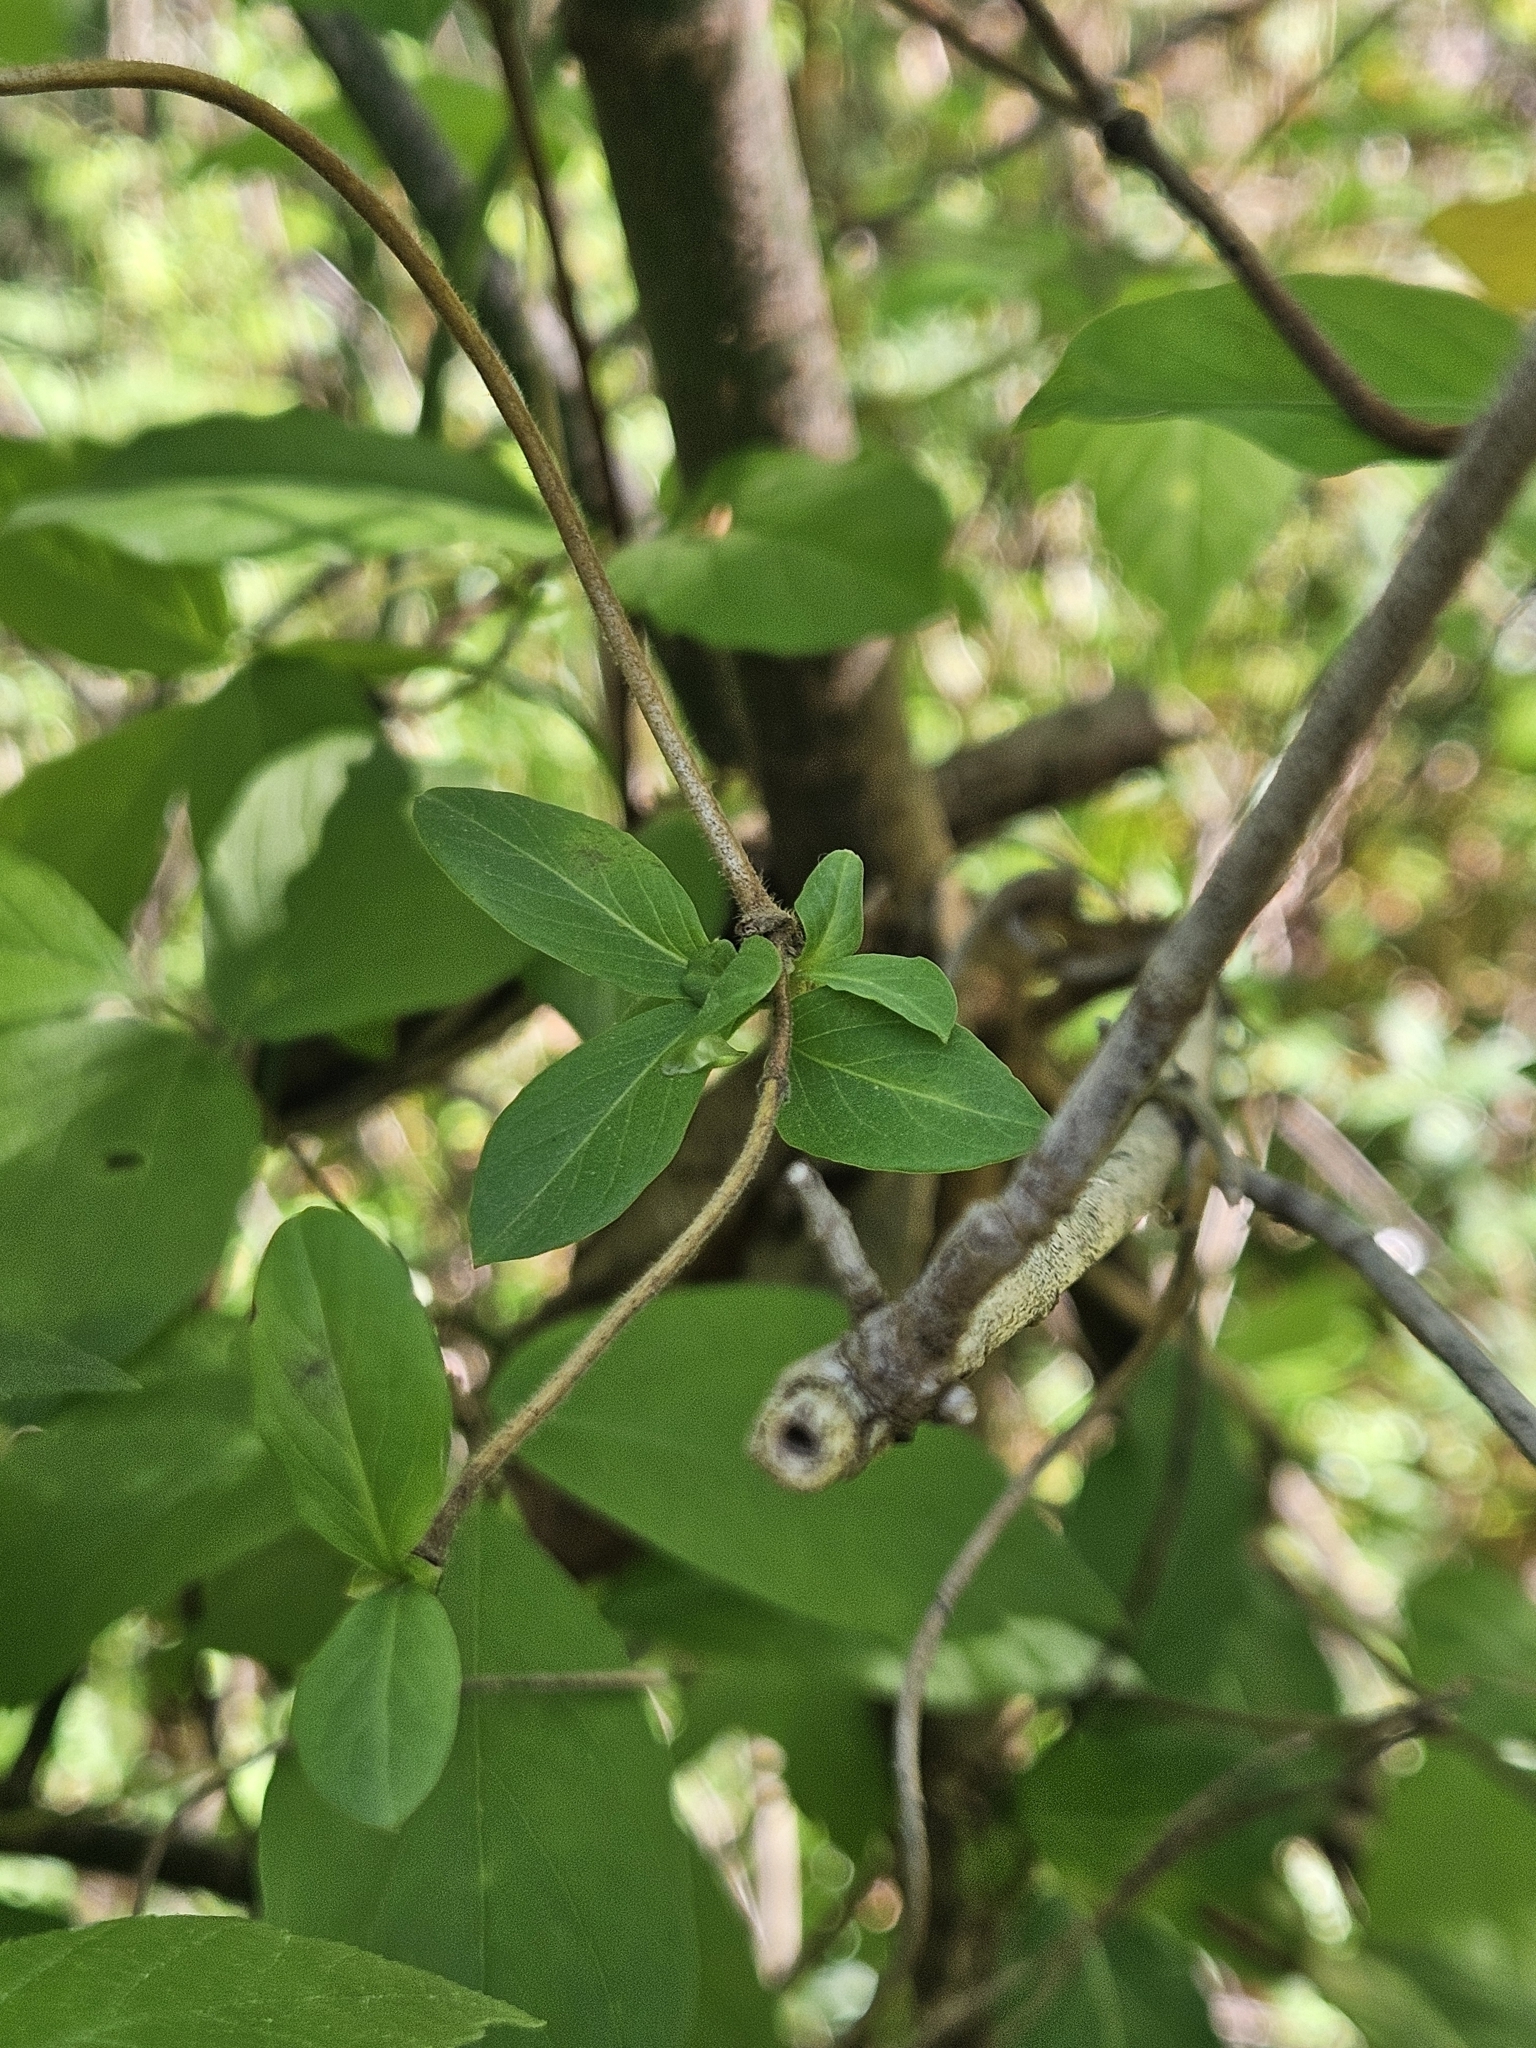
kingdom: Plantae
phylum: Tracheophyta
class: Magnoliopsida
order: Dipsacales
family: Caprifoliaceae
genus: Lonicera
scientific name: Lonicera japonica
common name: Japanese honeysuckle
